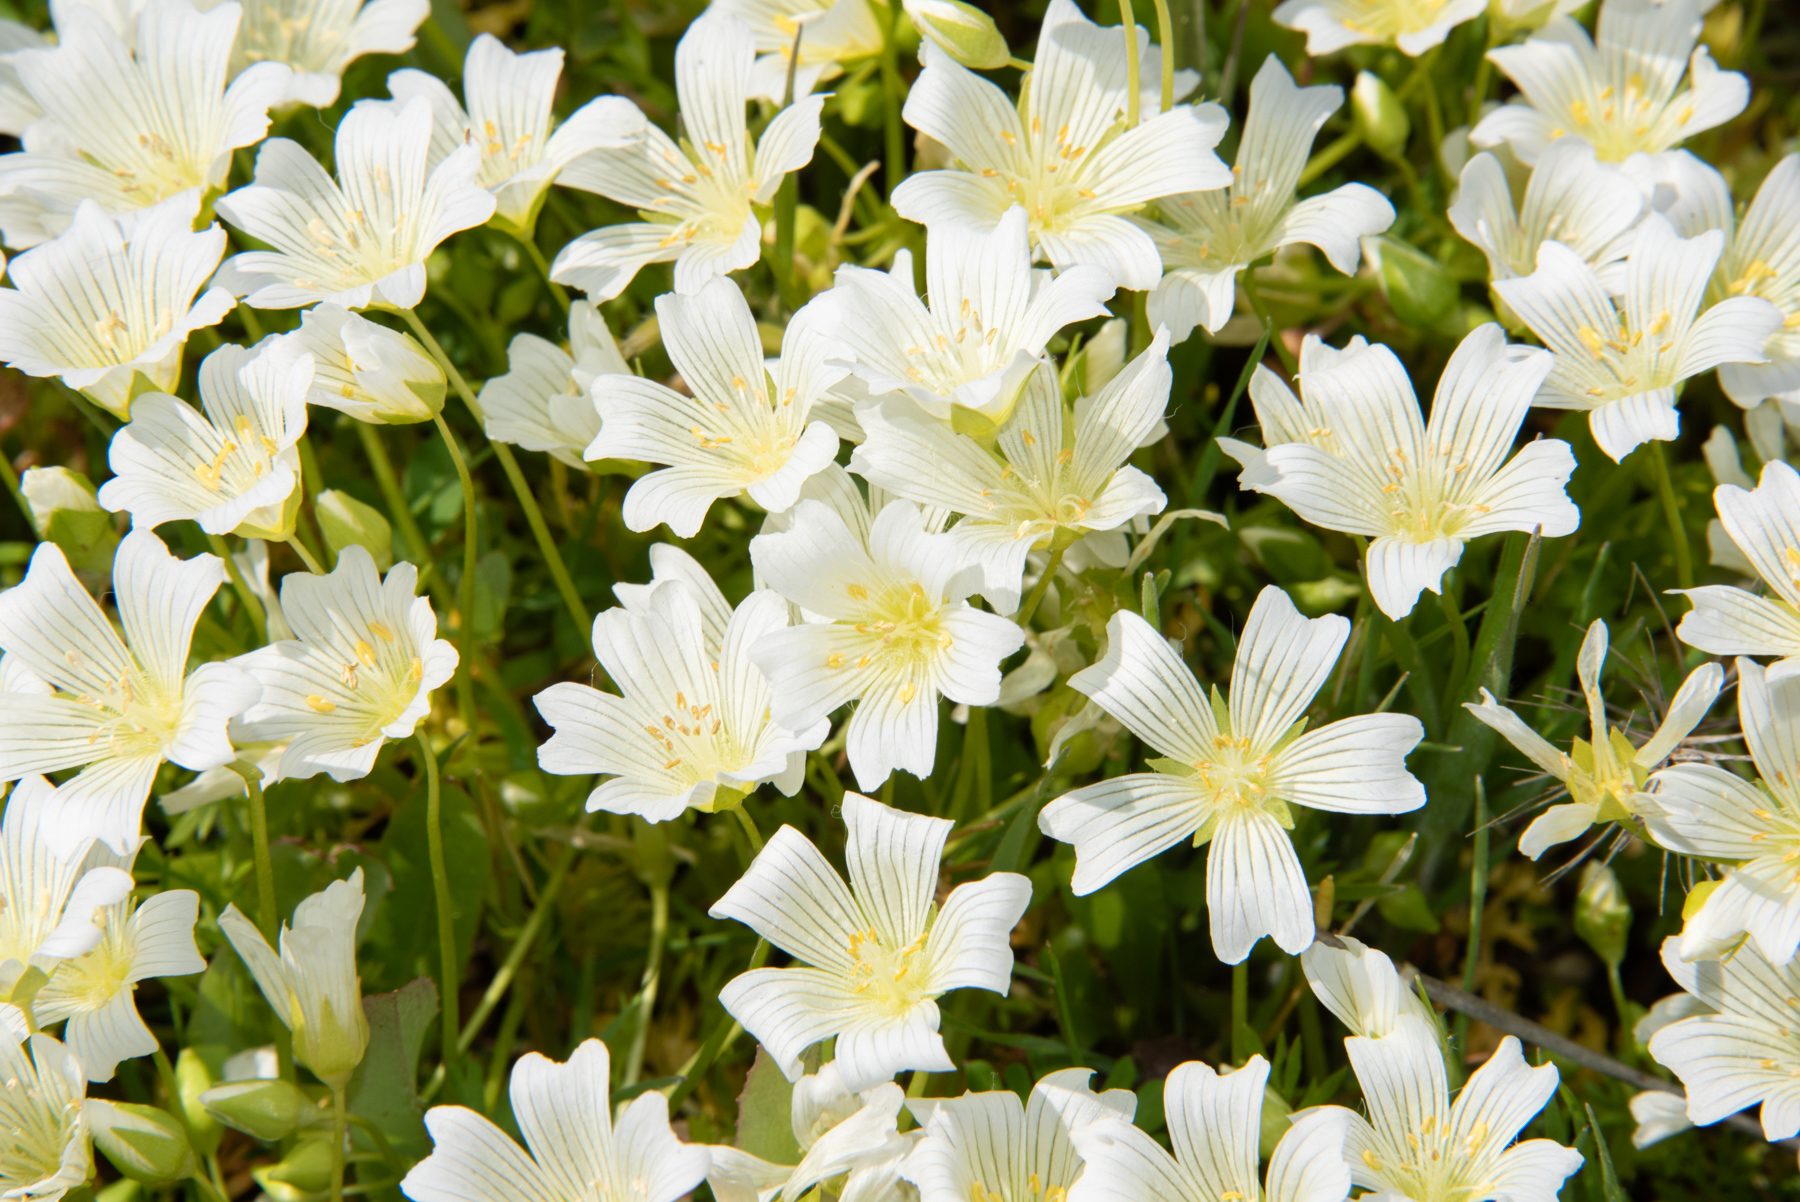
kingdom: Plantae
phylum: Tracheophyta
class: Magnoliopsida
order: Brassicales
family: Limnanthaceae
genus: Limnanthes
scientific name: Limnanthes alba
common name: Meadowfoam
